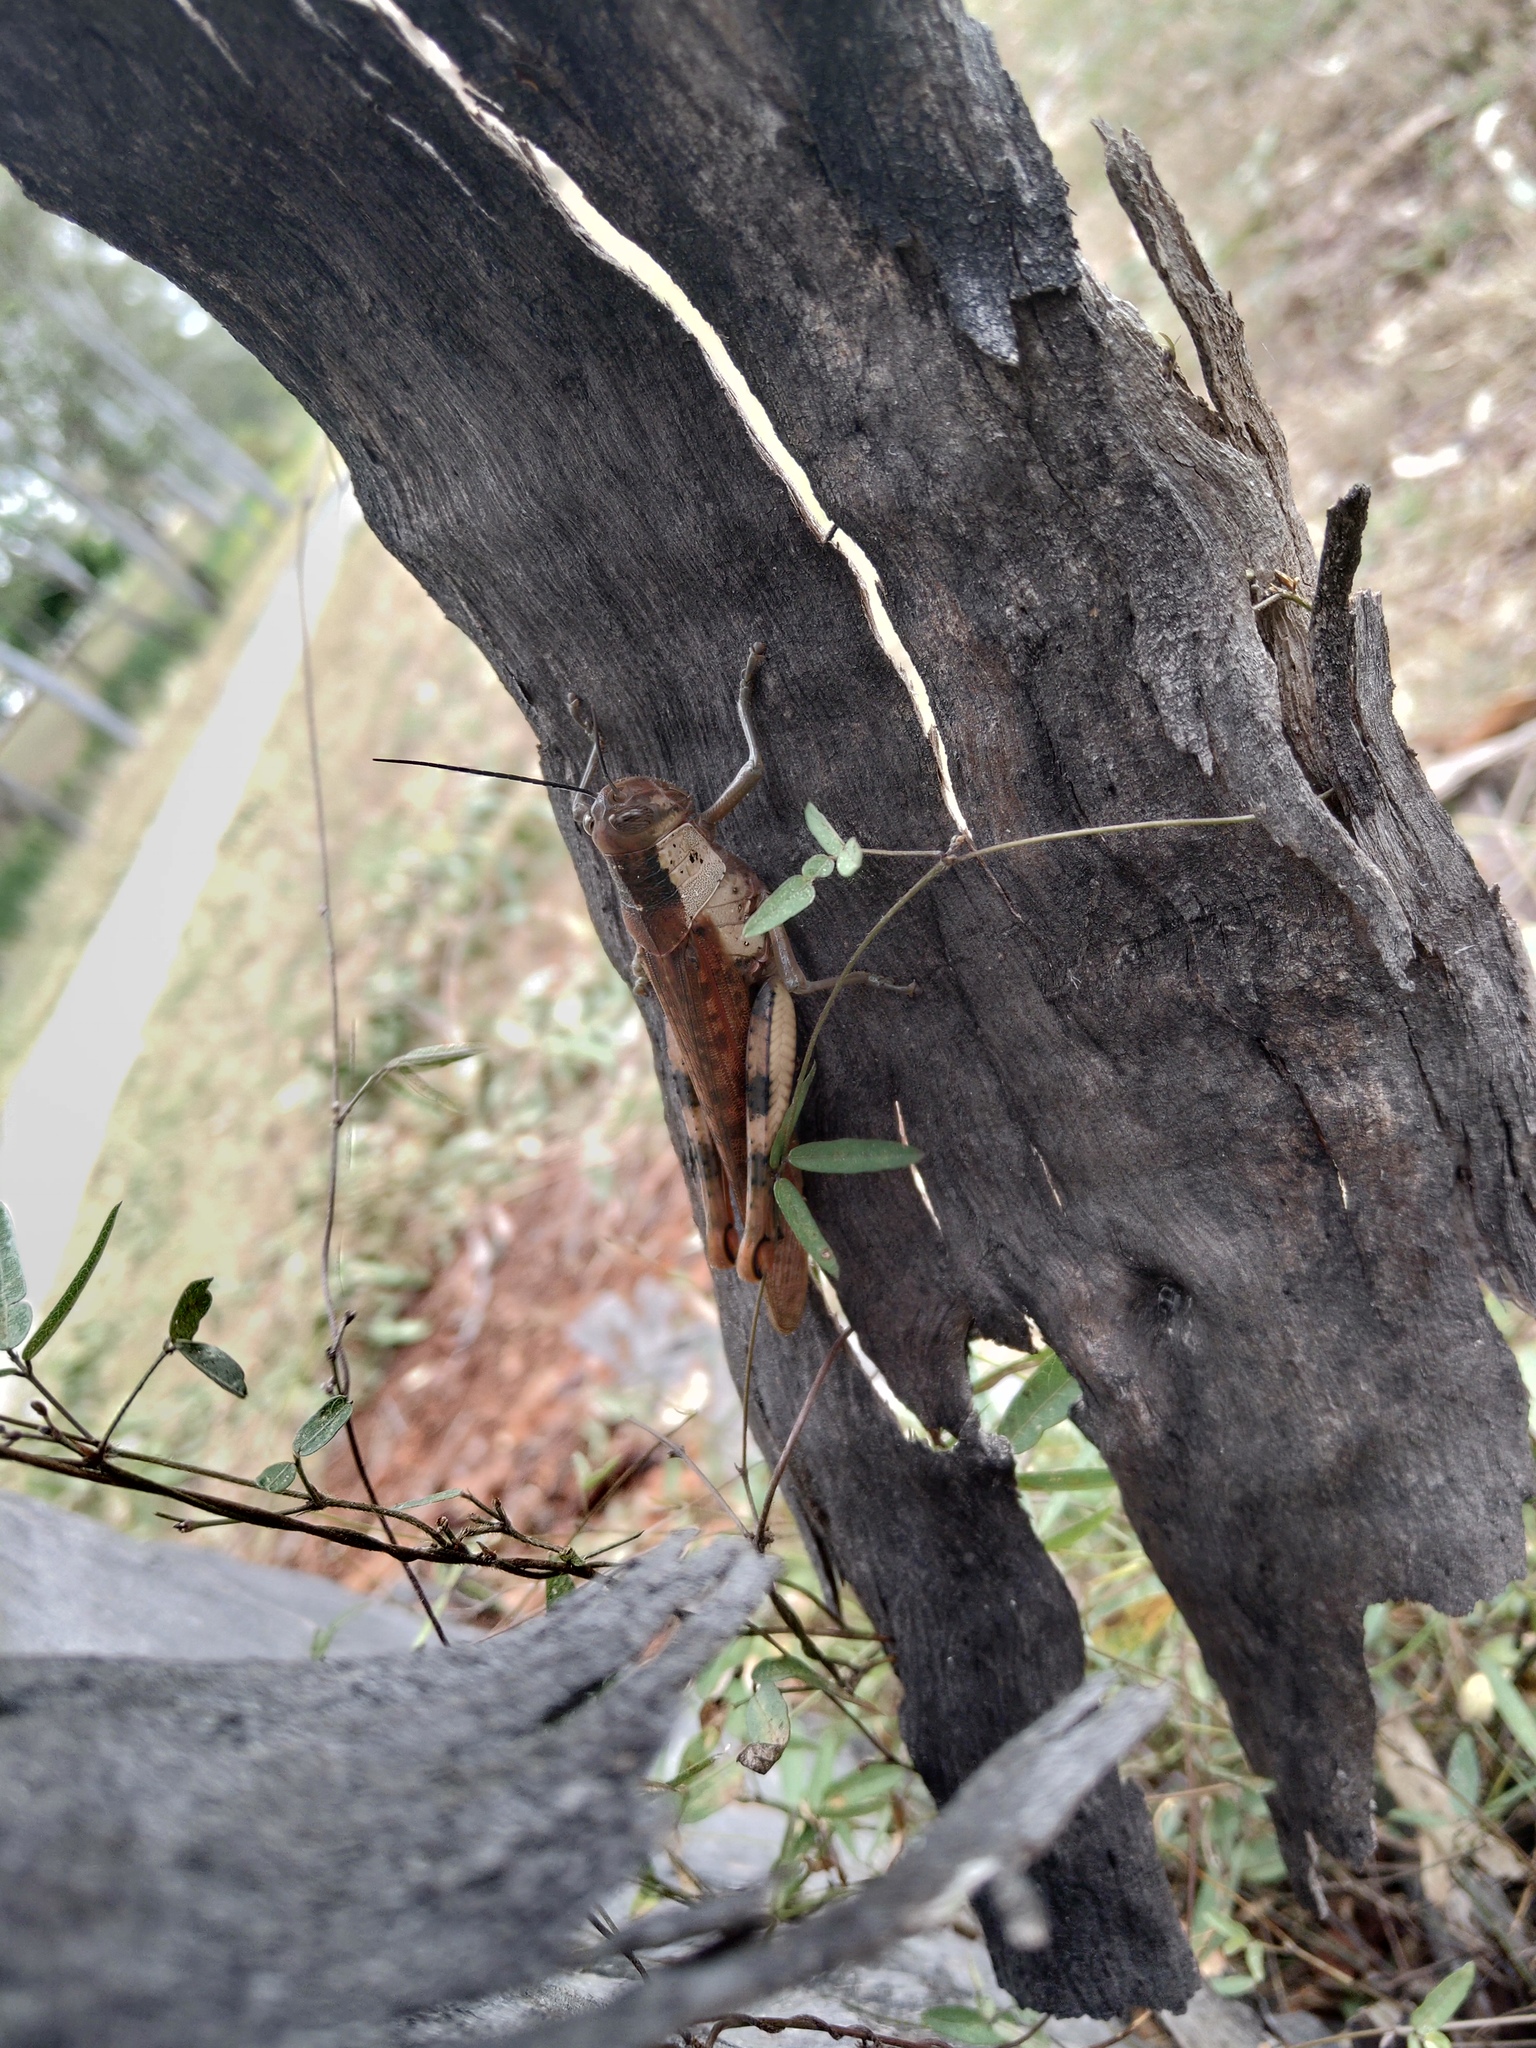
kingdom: Animalia
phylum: Arthropoda
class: Insecta
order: Orthoptera
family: Acrididae
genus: Valanga
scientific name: Valanga irregularis
